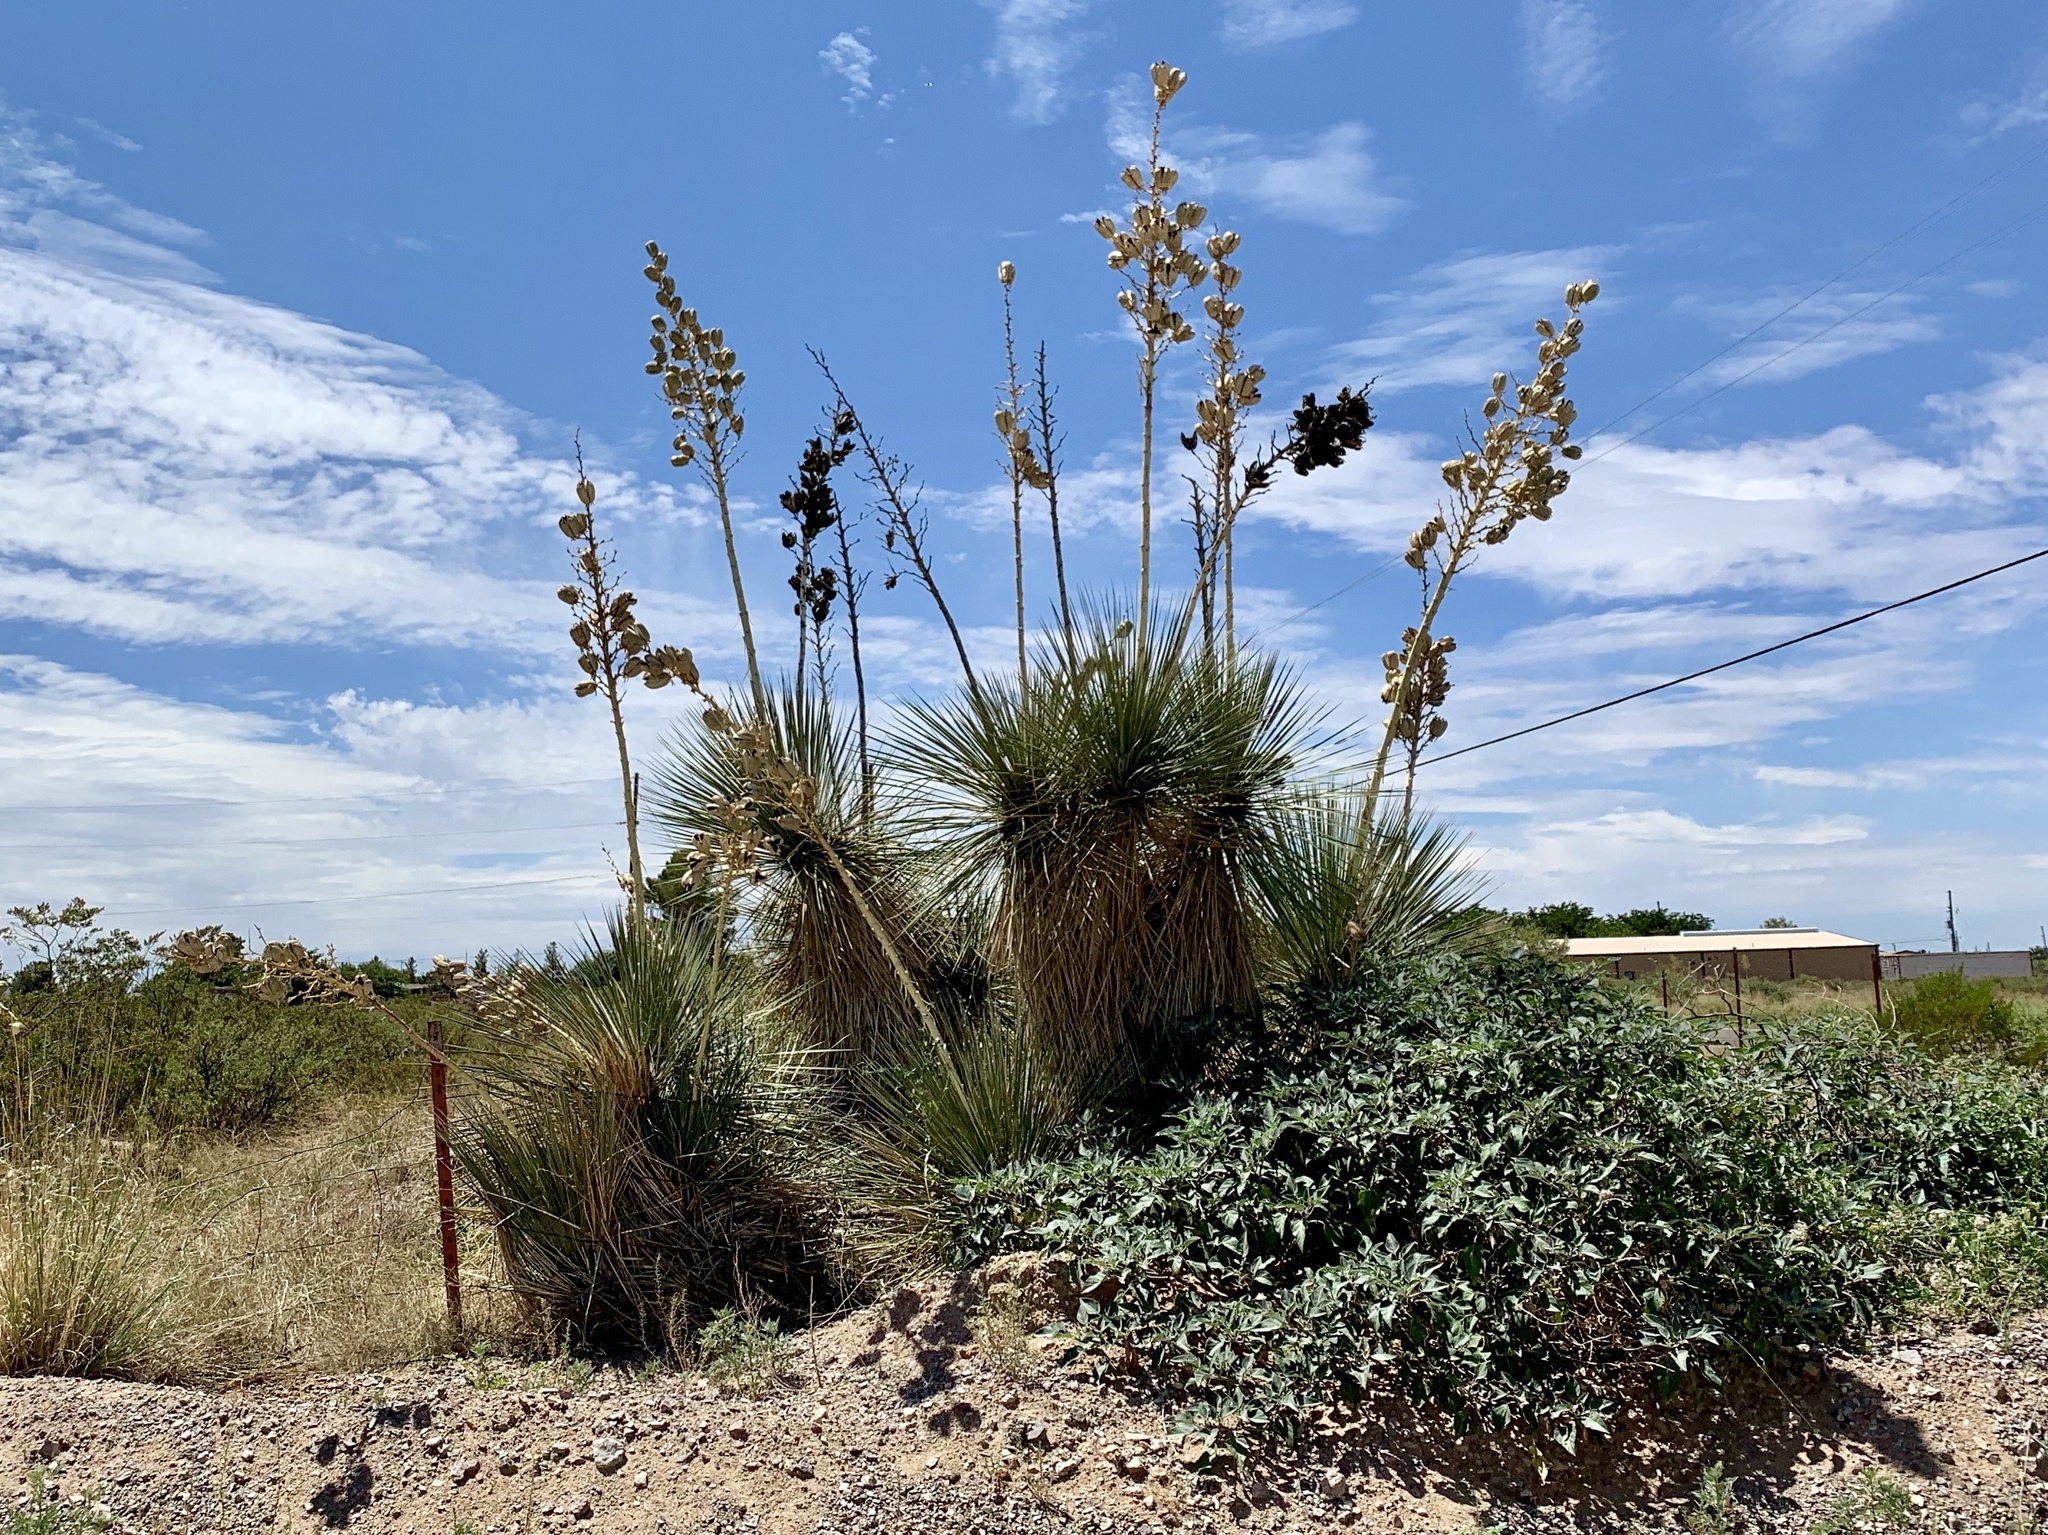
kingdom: Plantae
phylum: Tracheophyta
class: Liliopsida
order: Asparagales
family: Asparagaceae
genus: Yucca
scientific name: Yucca elata
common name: Palmella
